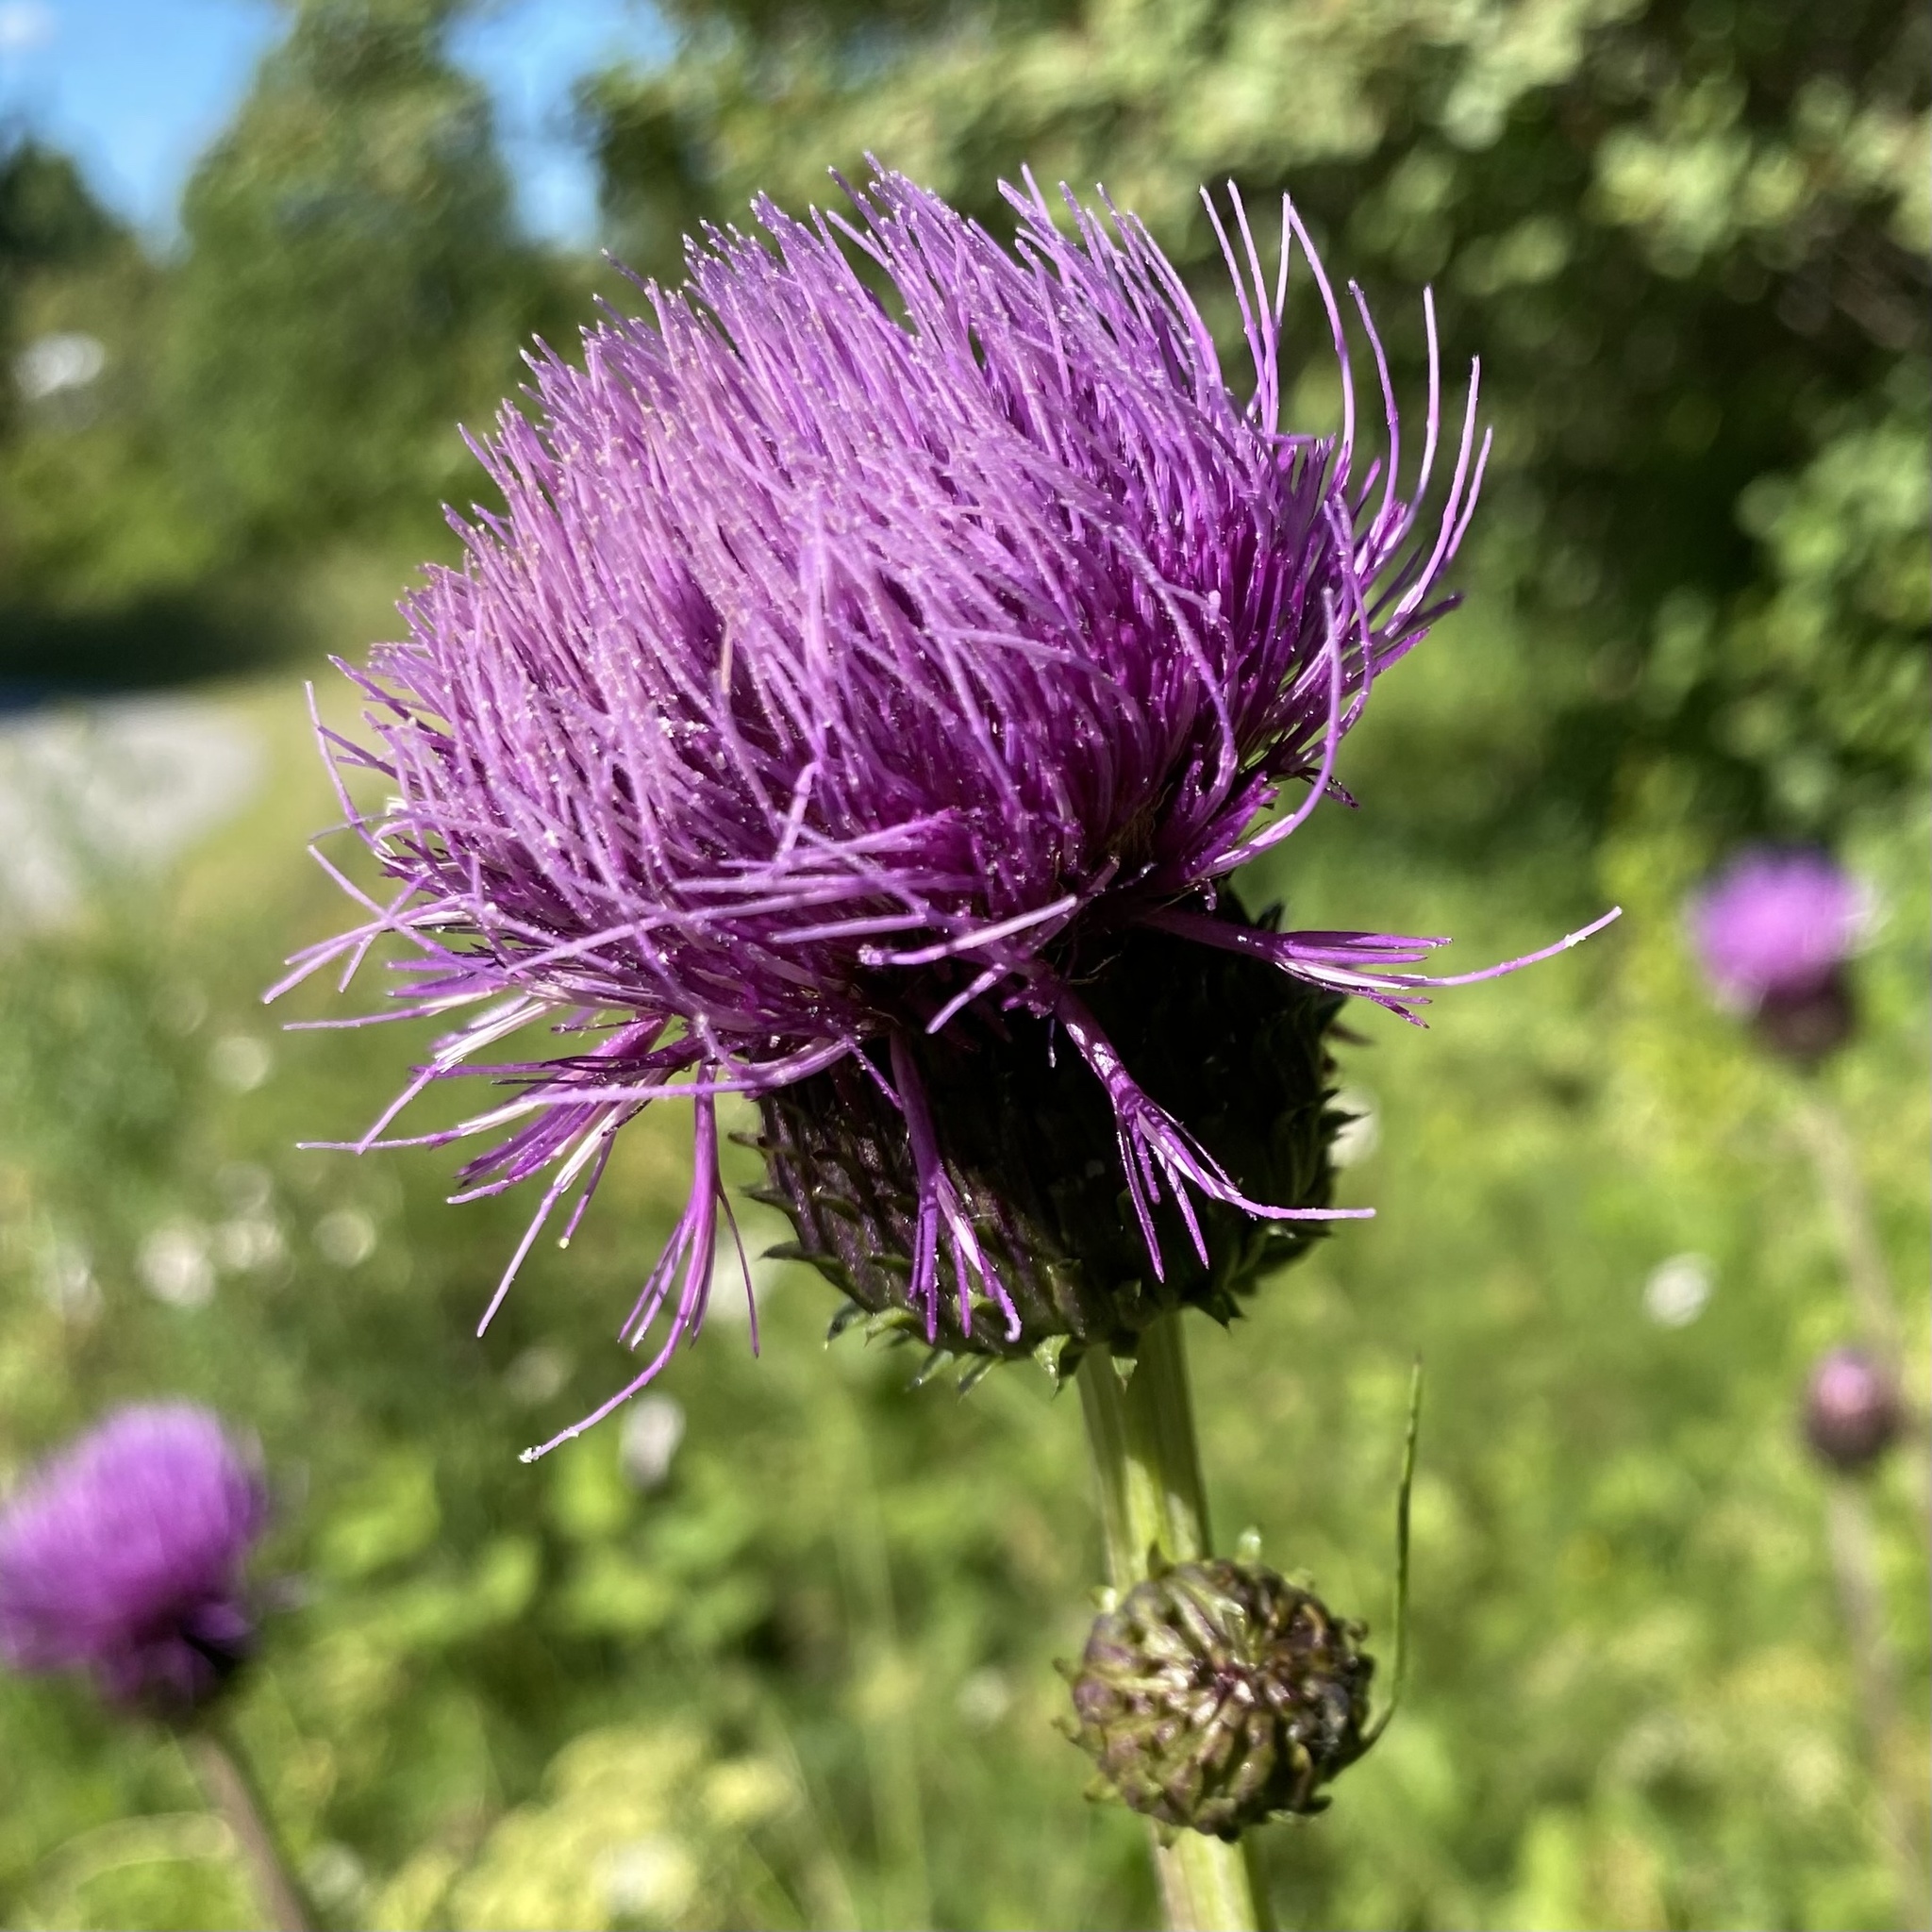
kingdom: Plantae
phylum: Tracheophyta
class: Magnoliopsida
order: Asterales
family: Asteraceae
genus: Cirsium
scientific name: Cirsium heterophyllum
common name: Melancholy thistle
